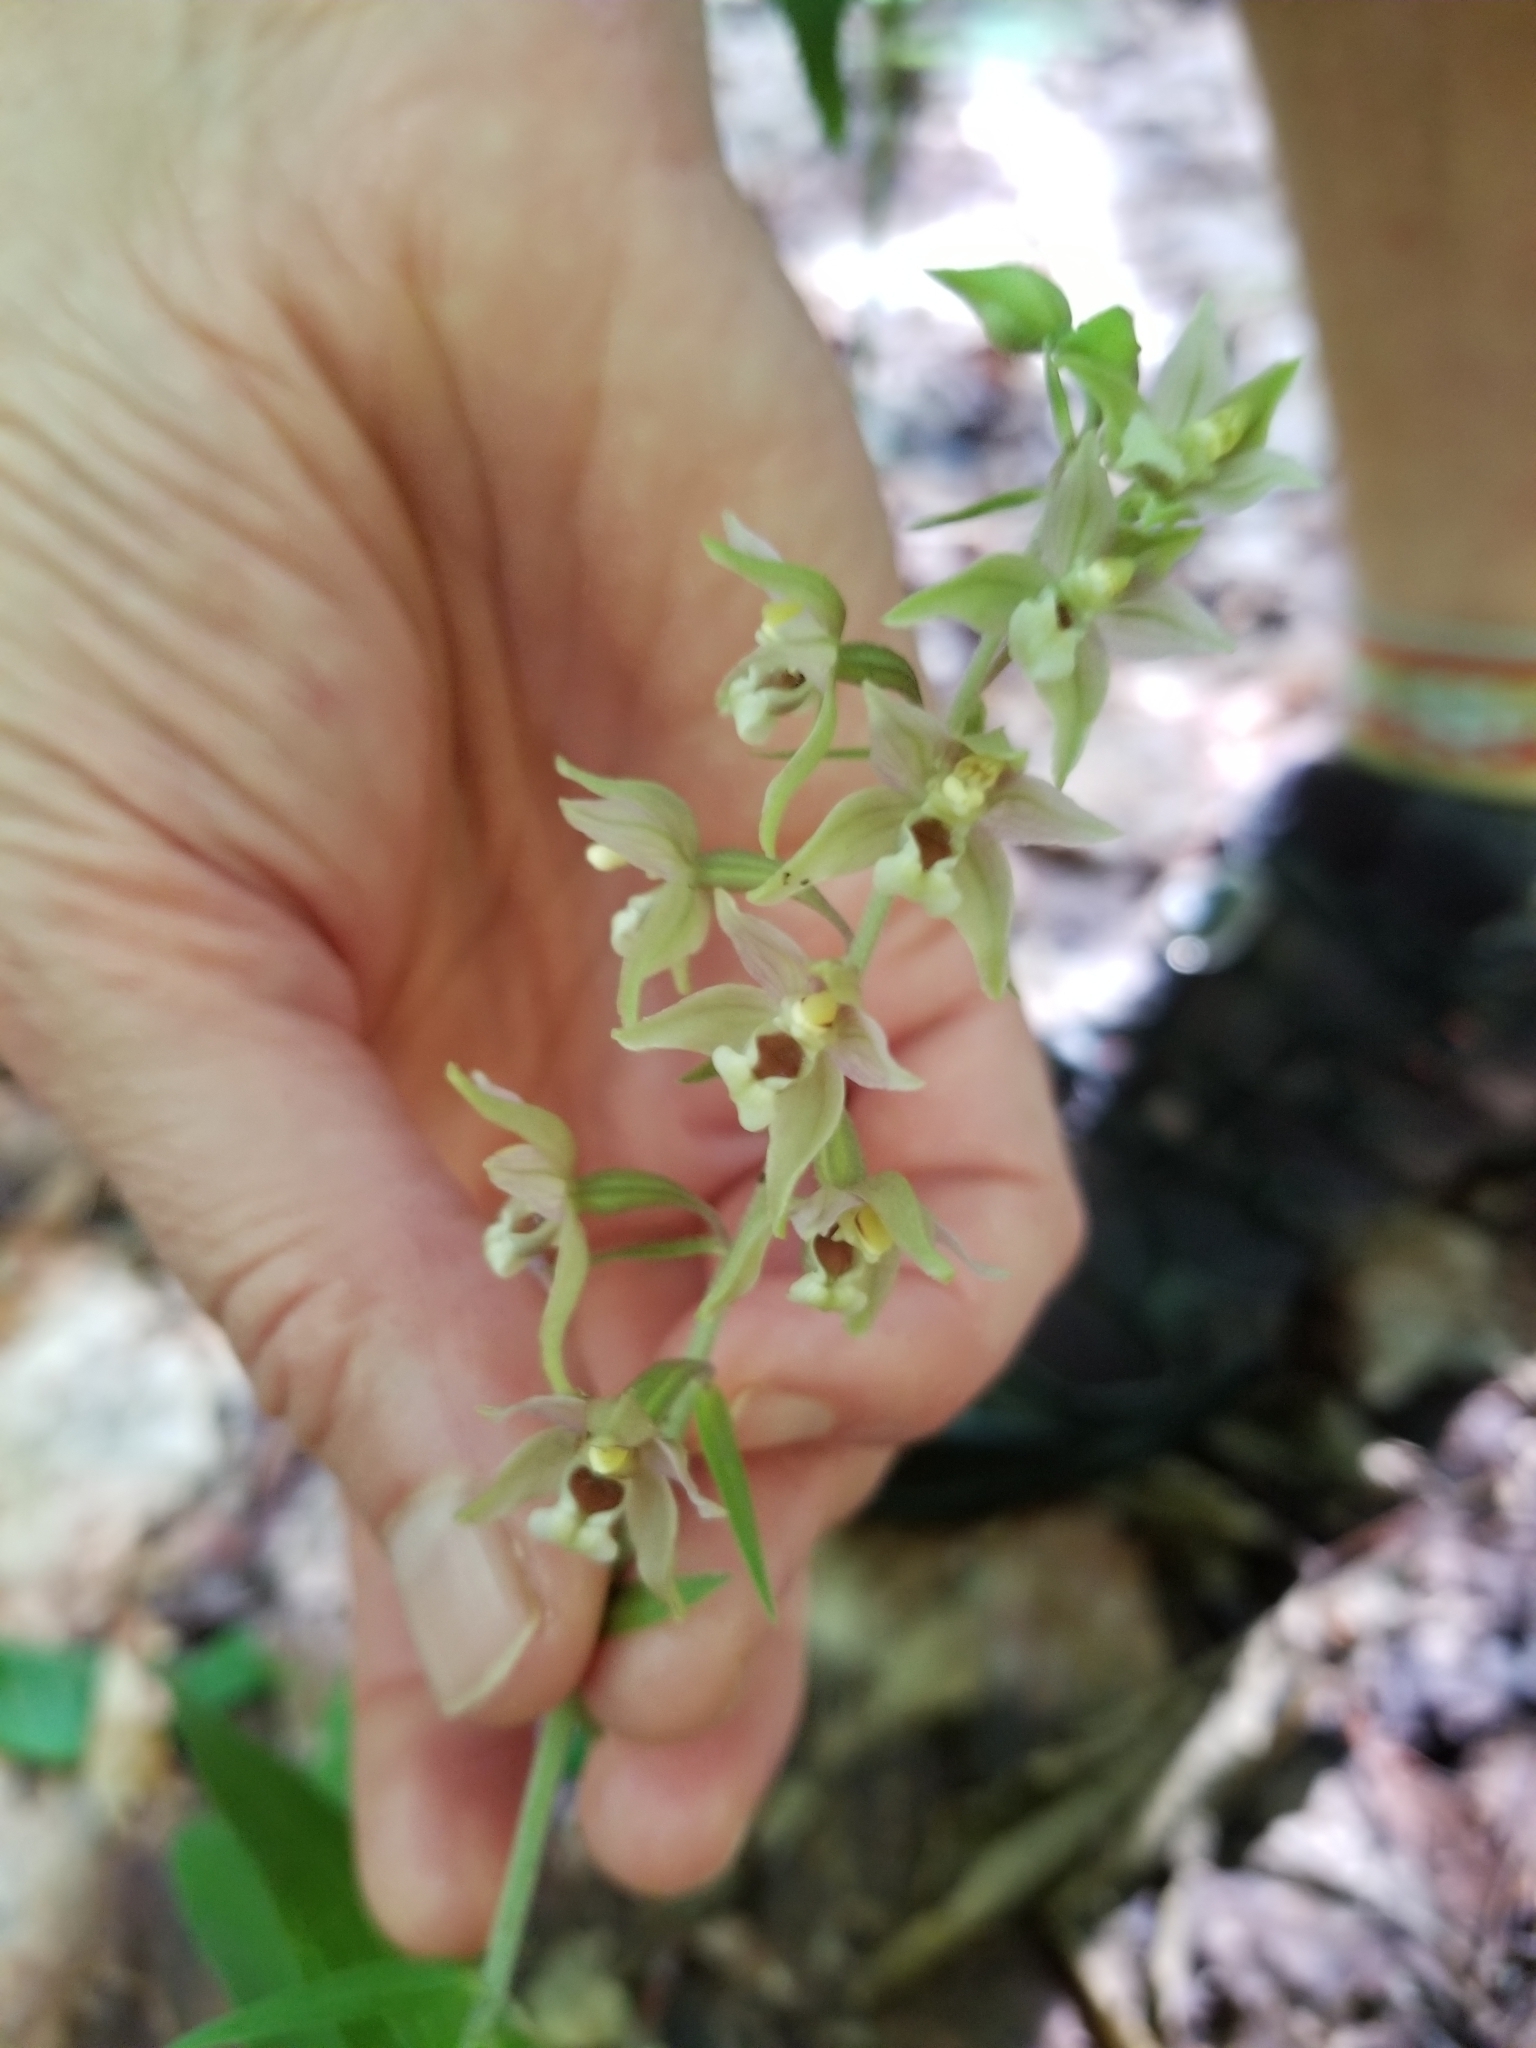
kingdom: Plantae
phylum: Tracheophyta
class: Liliopsida
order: Asparagales
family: Orchidaceae
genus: Epipactis
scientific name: Epipactis helleborine
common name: Broad-leaved helleborine
